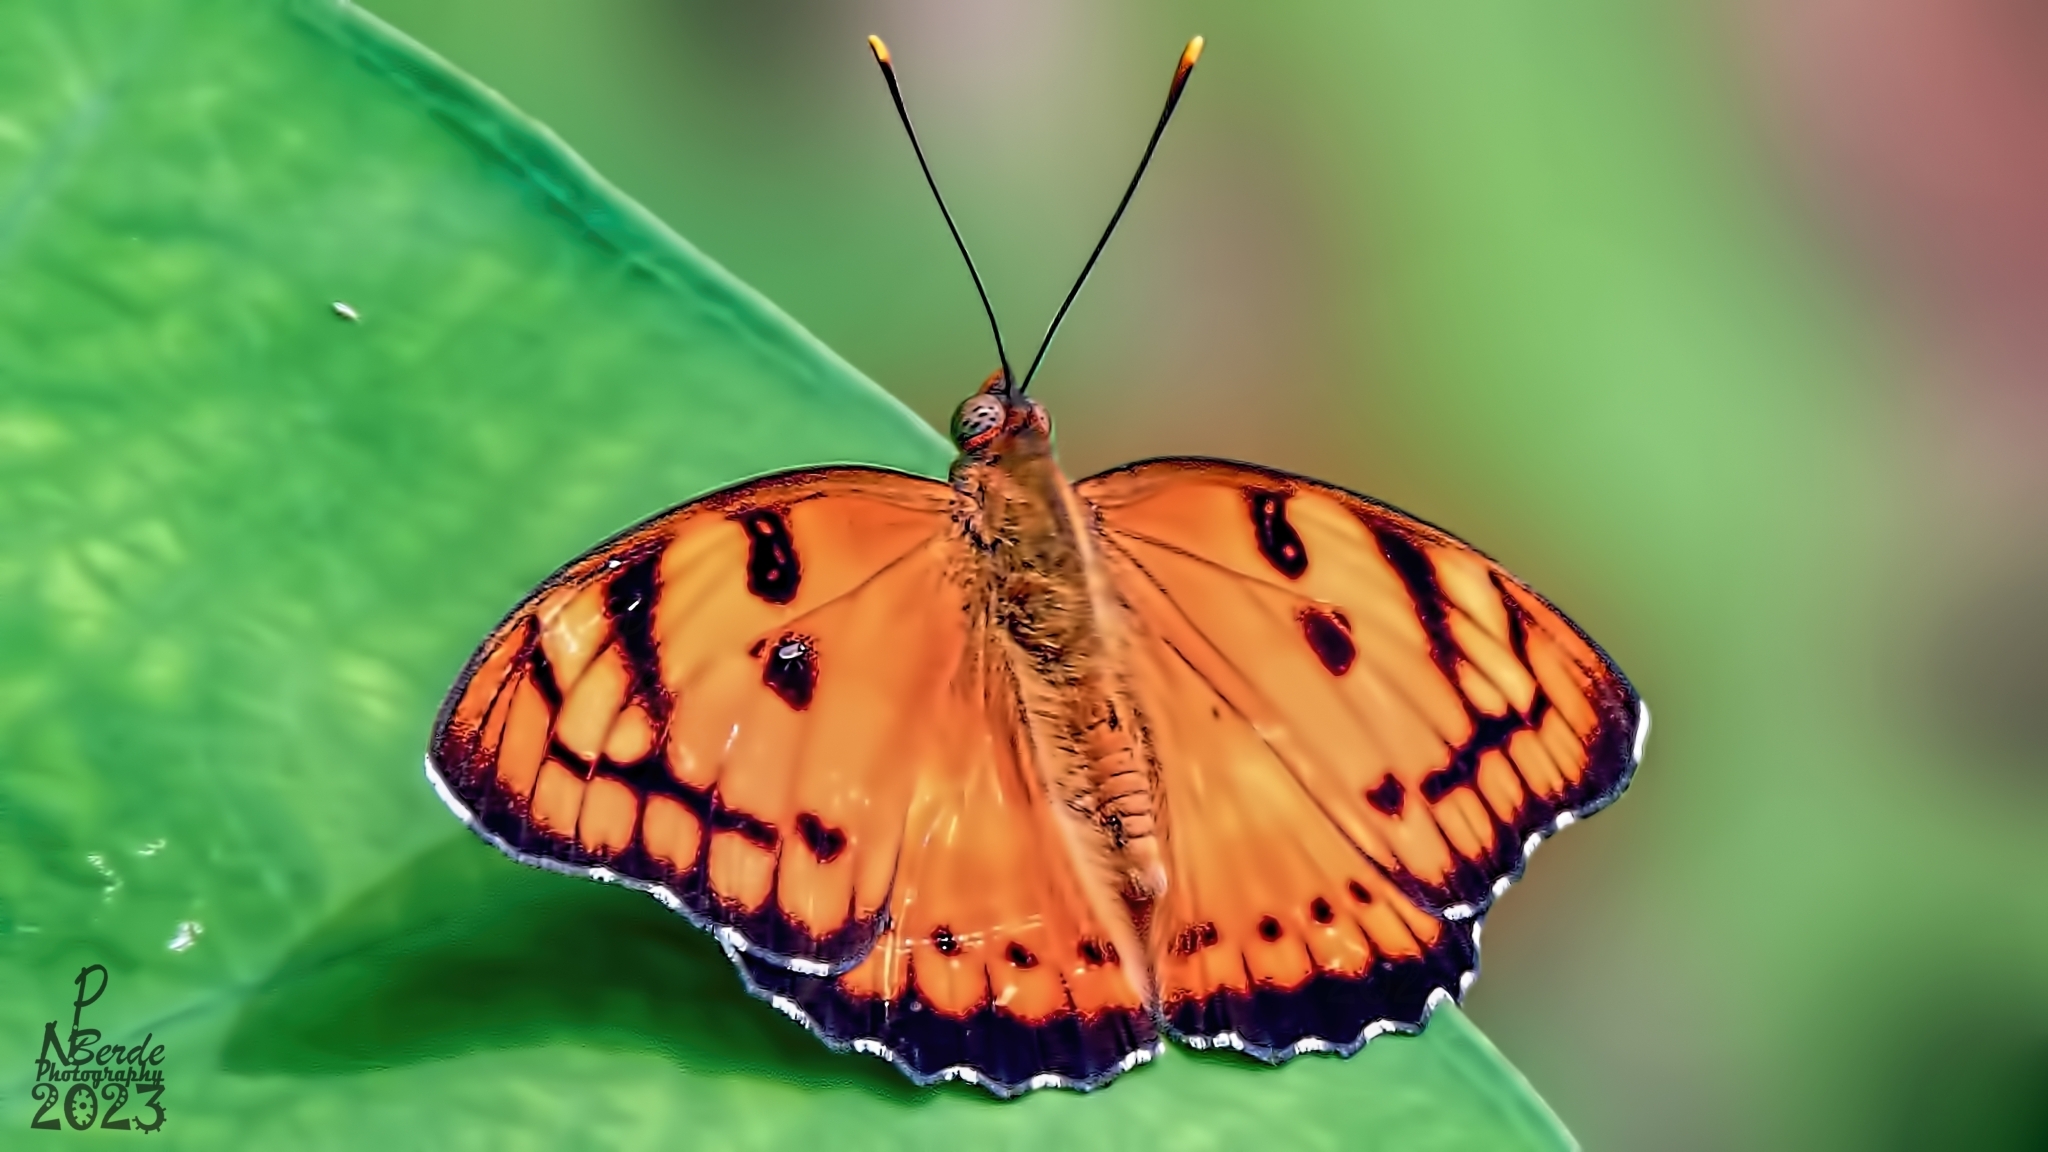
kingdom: Animalia
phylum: Arthropoda
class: Insecta
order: Lepidoptera
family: Nymphalidae
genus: Euthalia
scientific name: Euthalia nais
